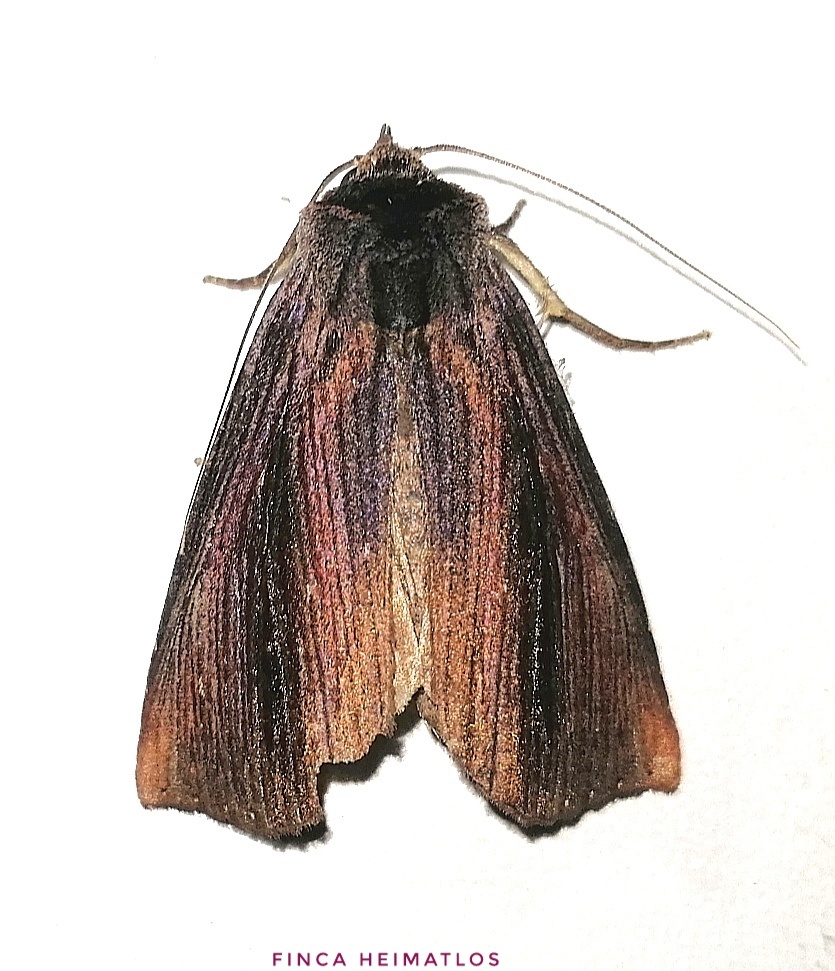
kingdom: Animalia
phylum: Arthropoda
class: Insecta
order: Lepidoptera
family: Notodontidae
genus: Antiopha
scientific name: Antiopha excelsa
